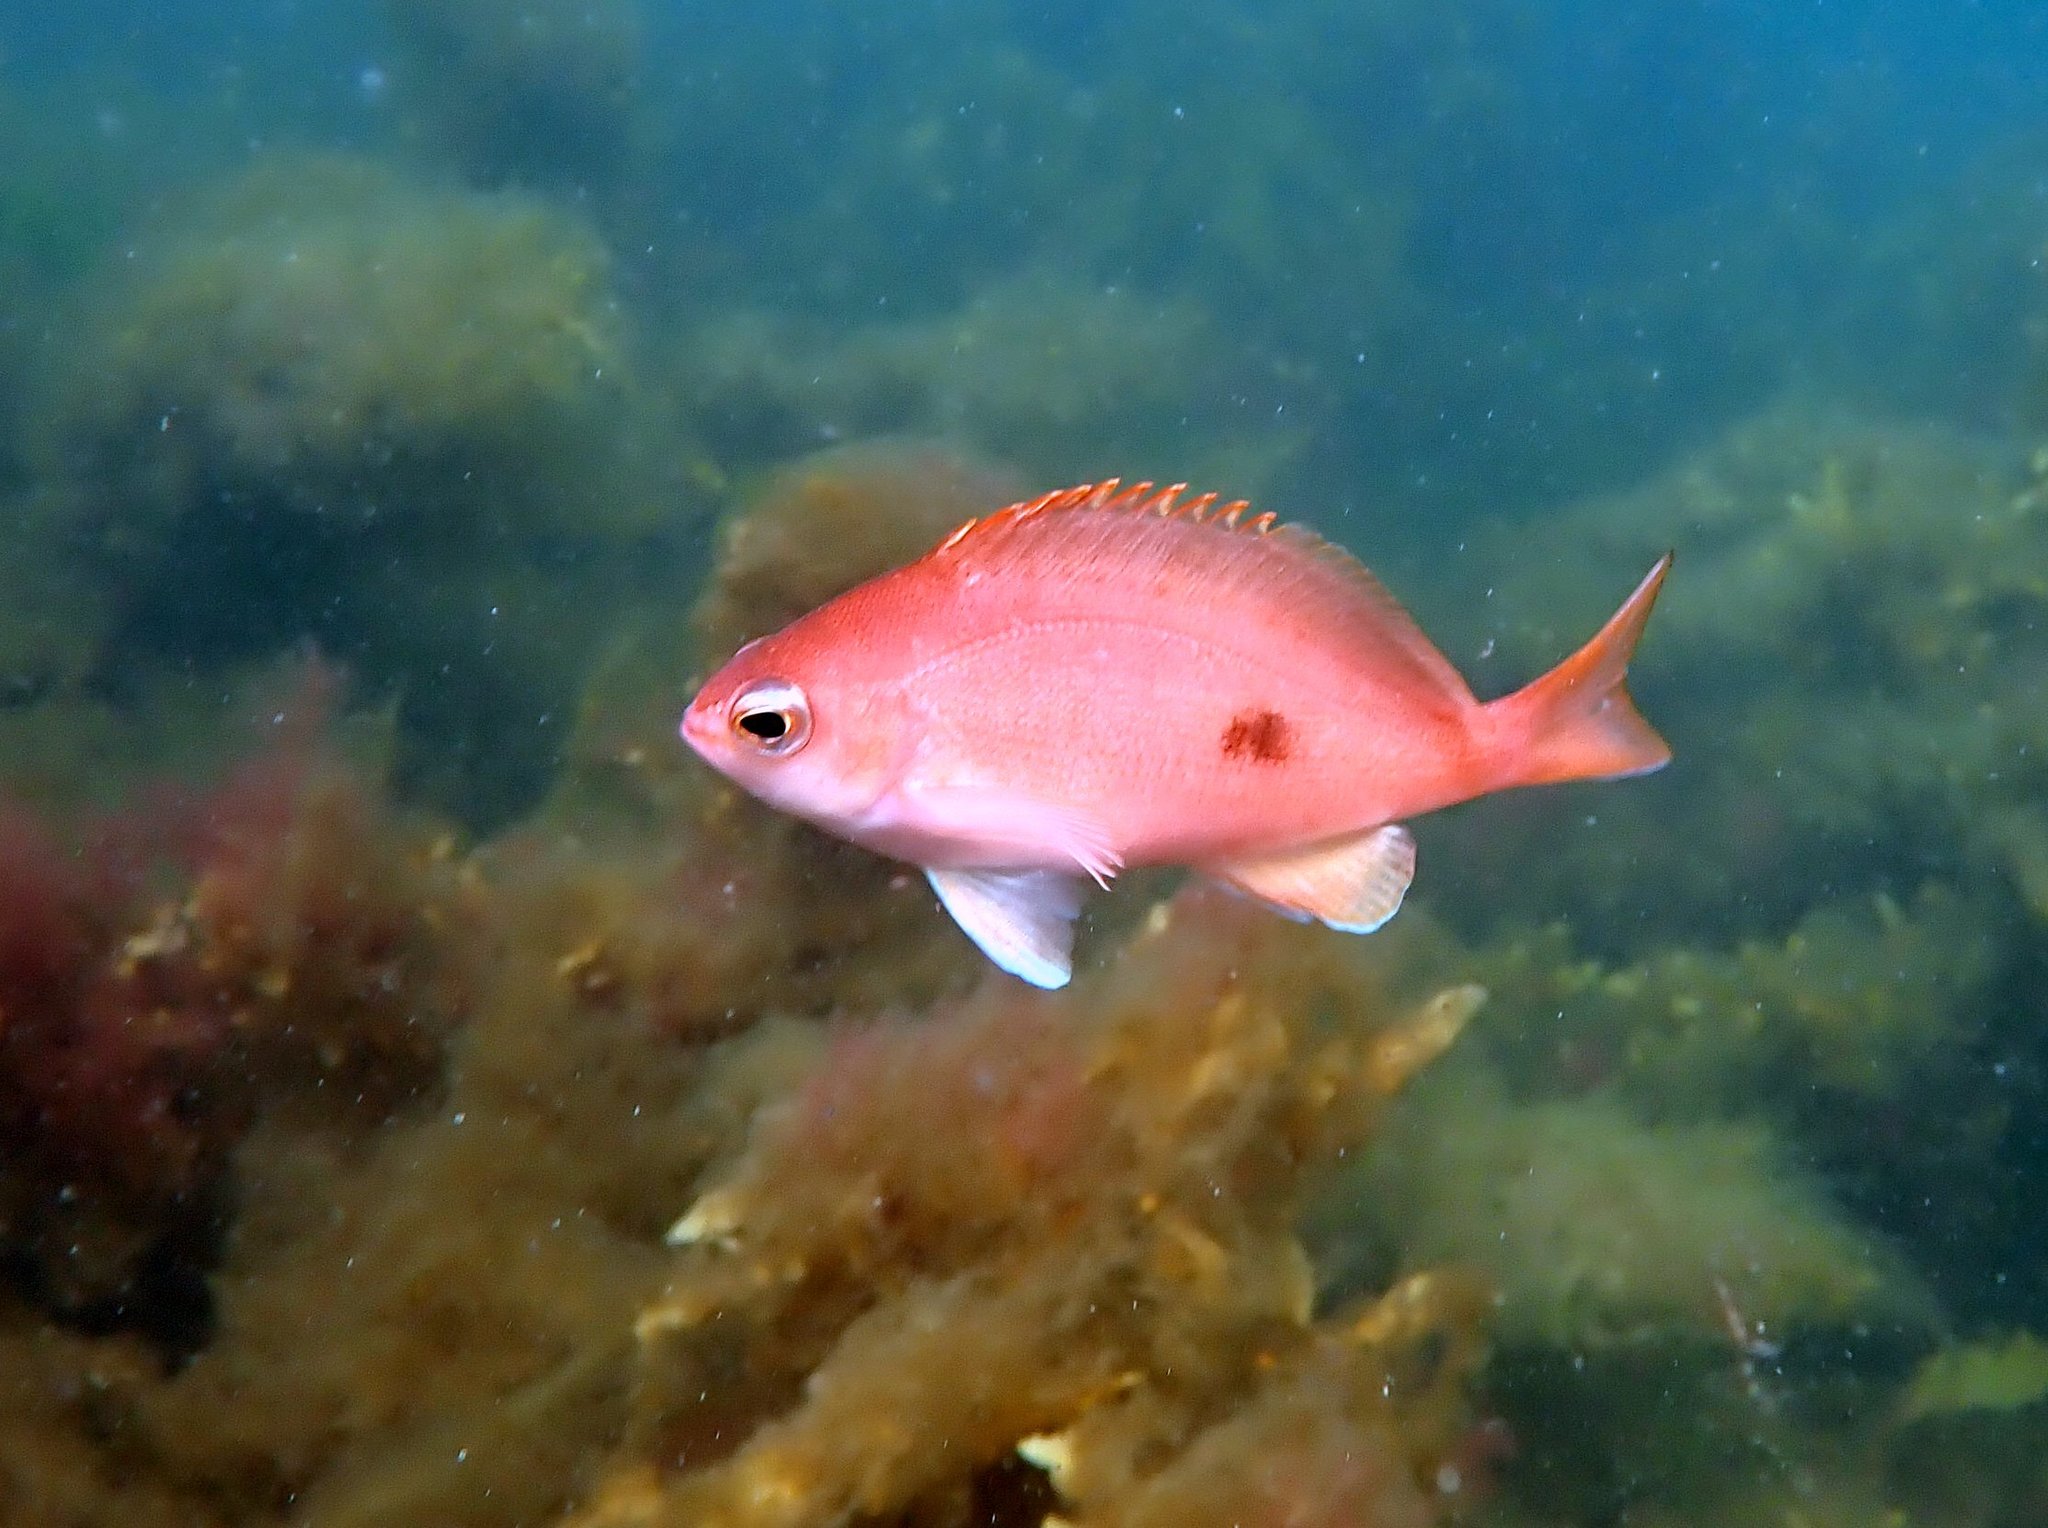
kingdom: Animalia
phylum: Chordata
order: Perciformes
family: Serranidae
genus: Caesioperca
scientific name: Caesioperca lepidoptera
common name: Butterfly perch
